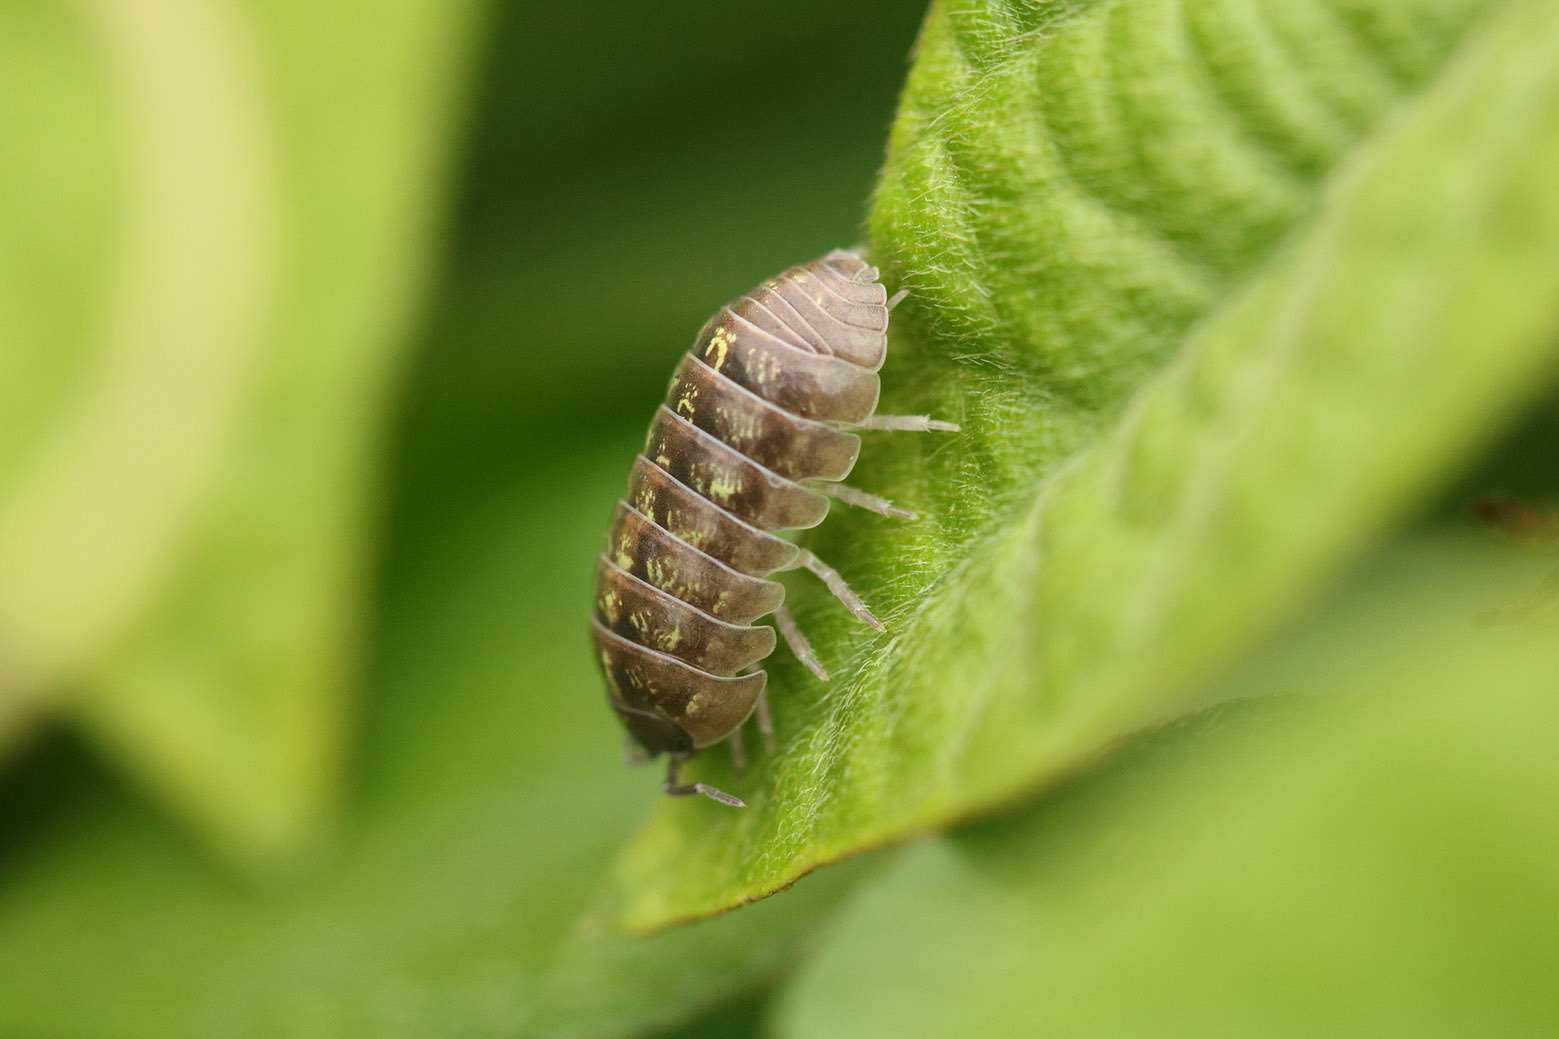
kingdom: Animalia
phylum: Arthropoda
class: Malacostraca
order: Isopoda
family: Armadillidiidae
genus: Armadillidium
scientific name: Armadillidium vulgare
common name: Common pill woodlouse
